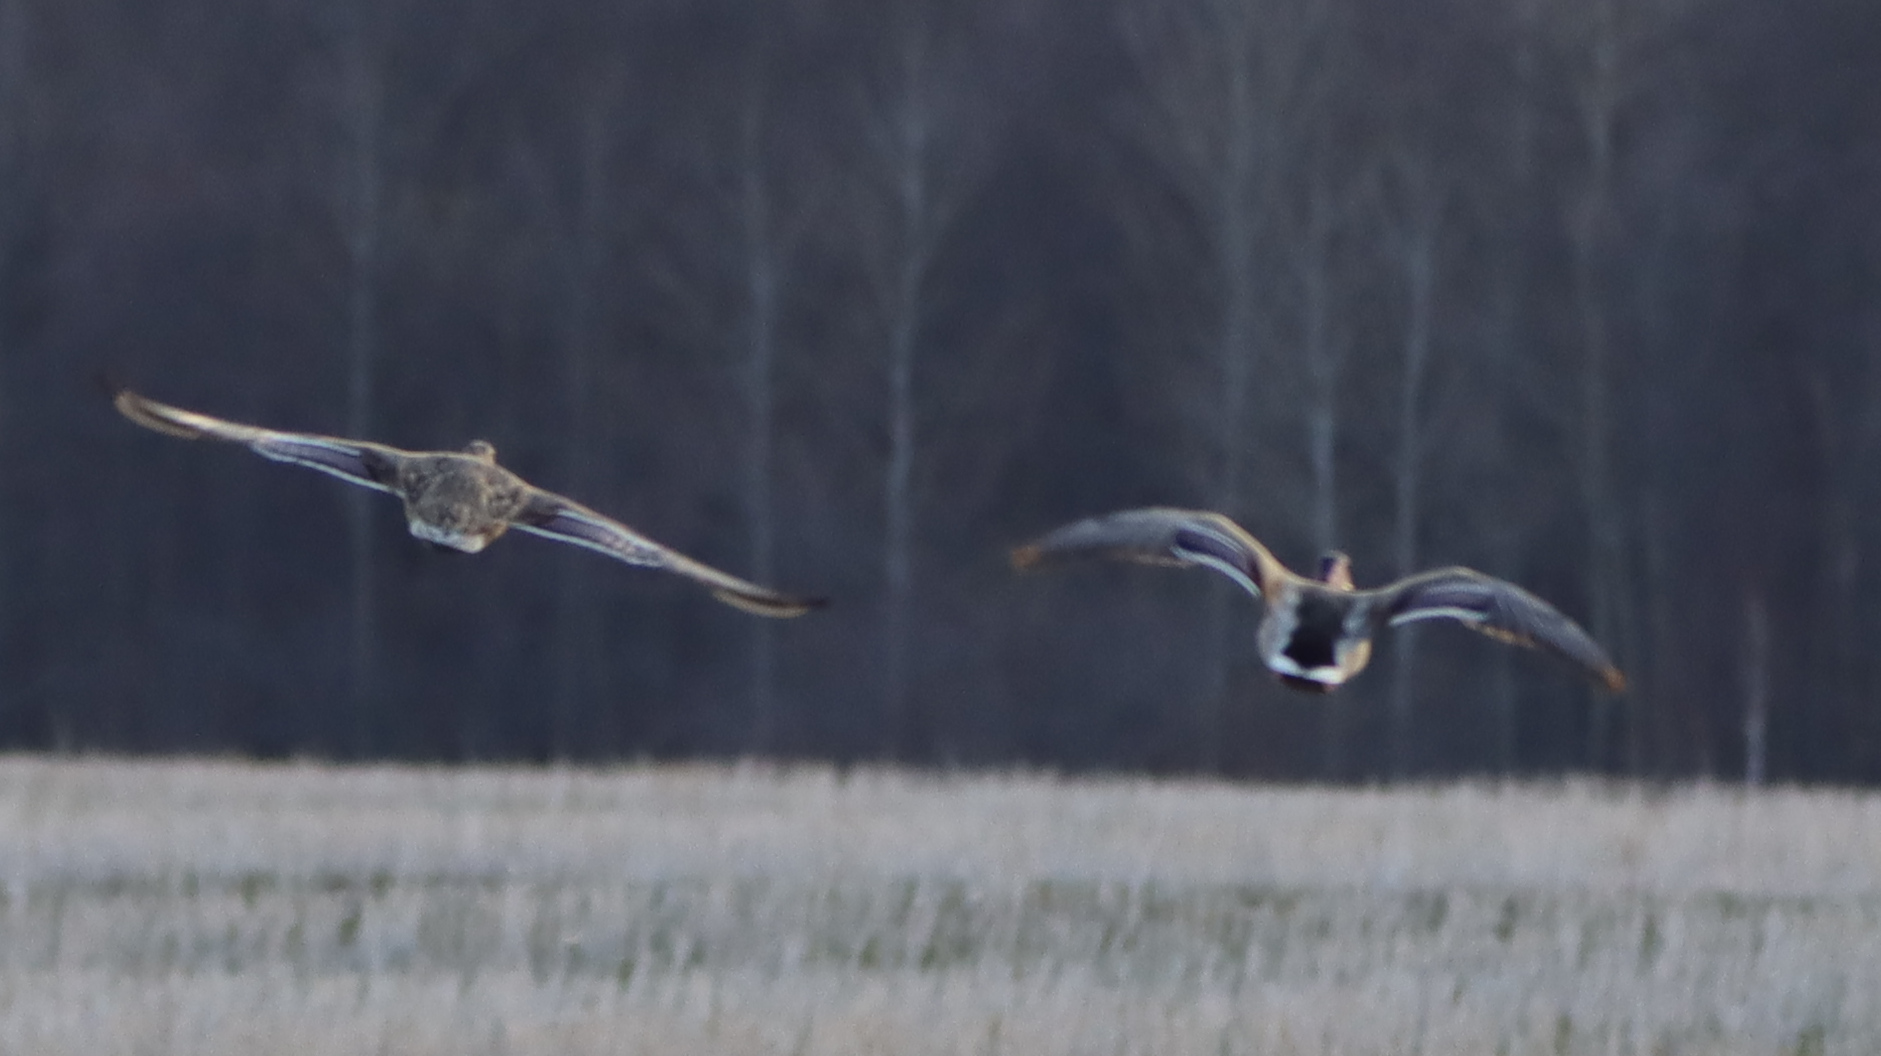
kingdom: Animalia
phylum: Chordata
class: Aves
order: Anseriformes
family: Anatidae
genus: Anas
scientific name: Anas platyrhynchos
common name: Mallard
